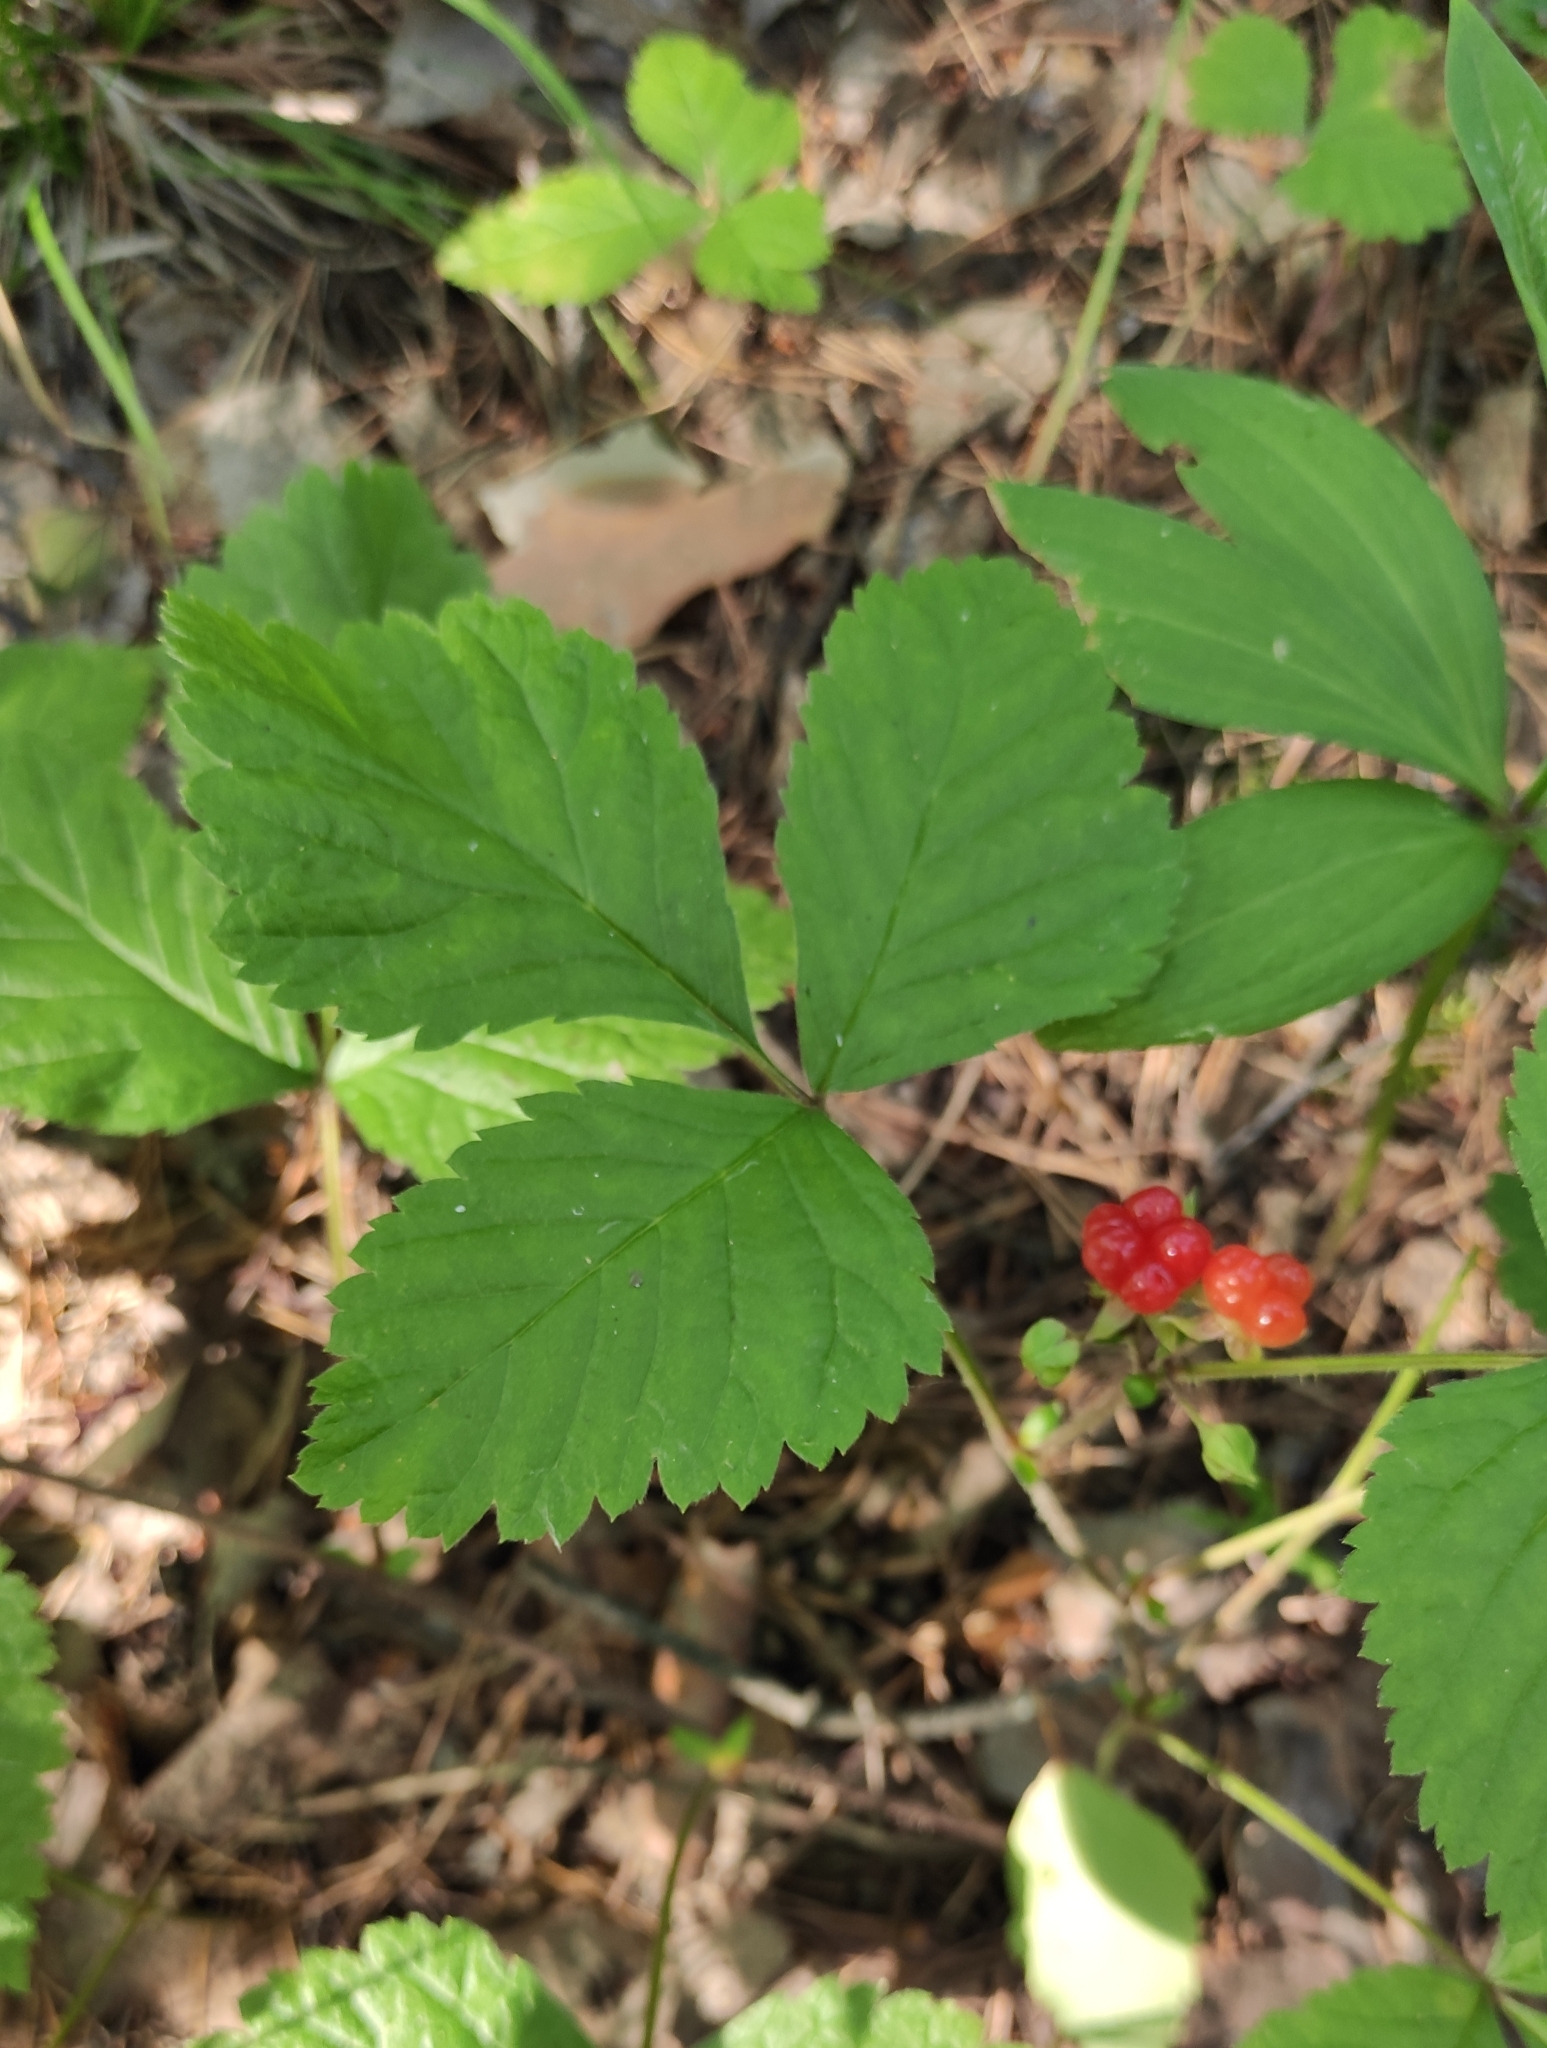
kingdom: Plantae
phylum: Tracheophyta
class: Magnoliopsida
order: Rosales
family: Rosaceae
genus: Rubus
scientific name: Rubus saxatilis
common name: Stone bramble
